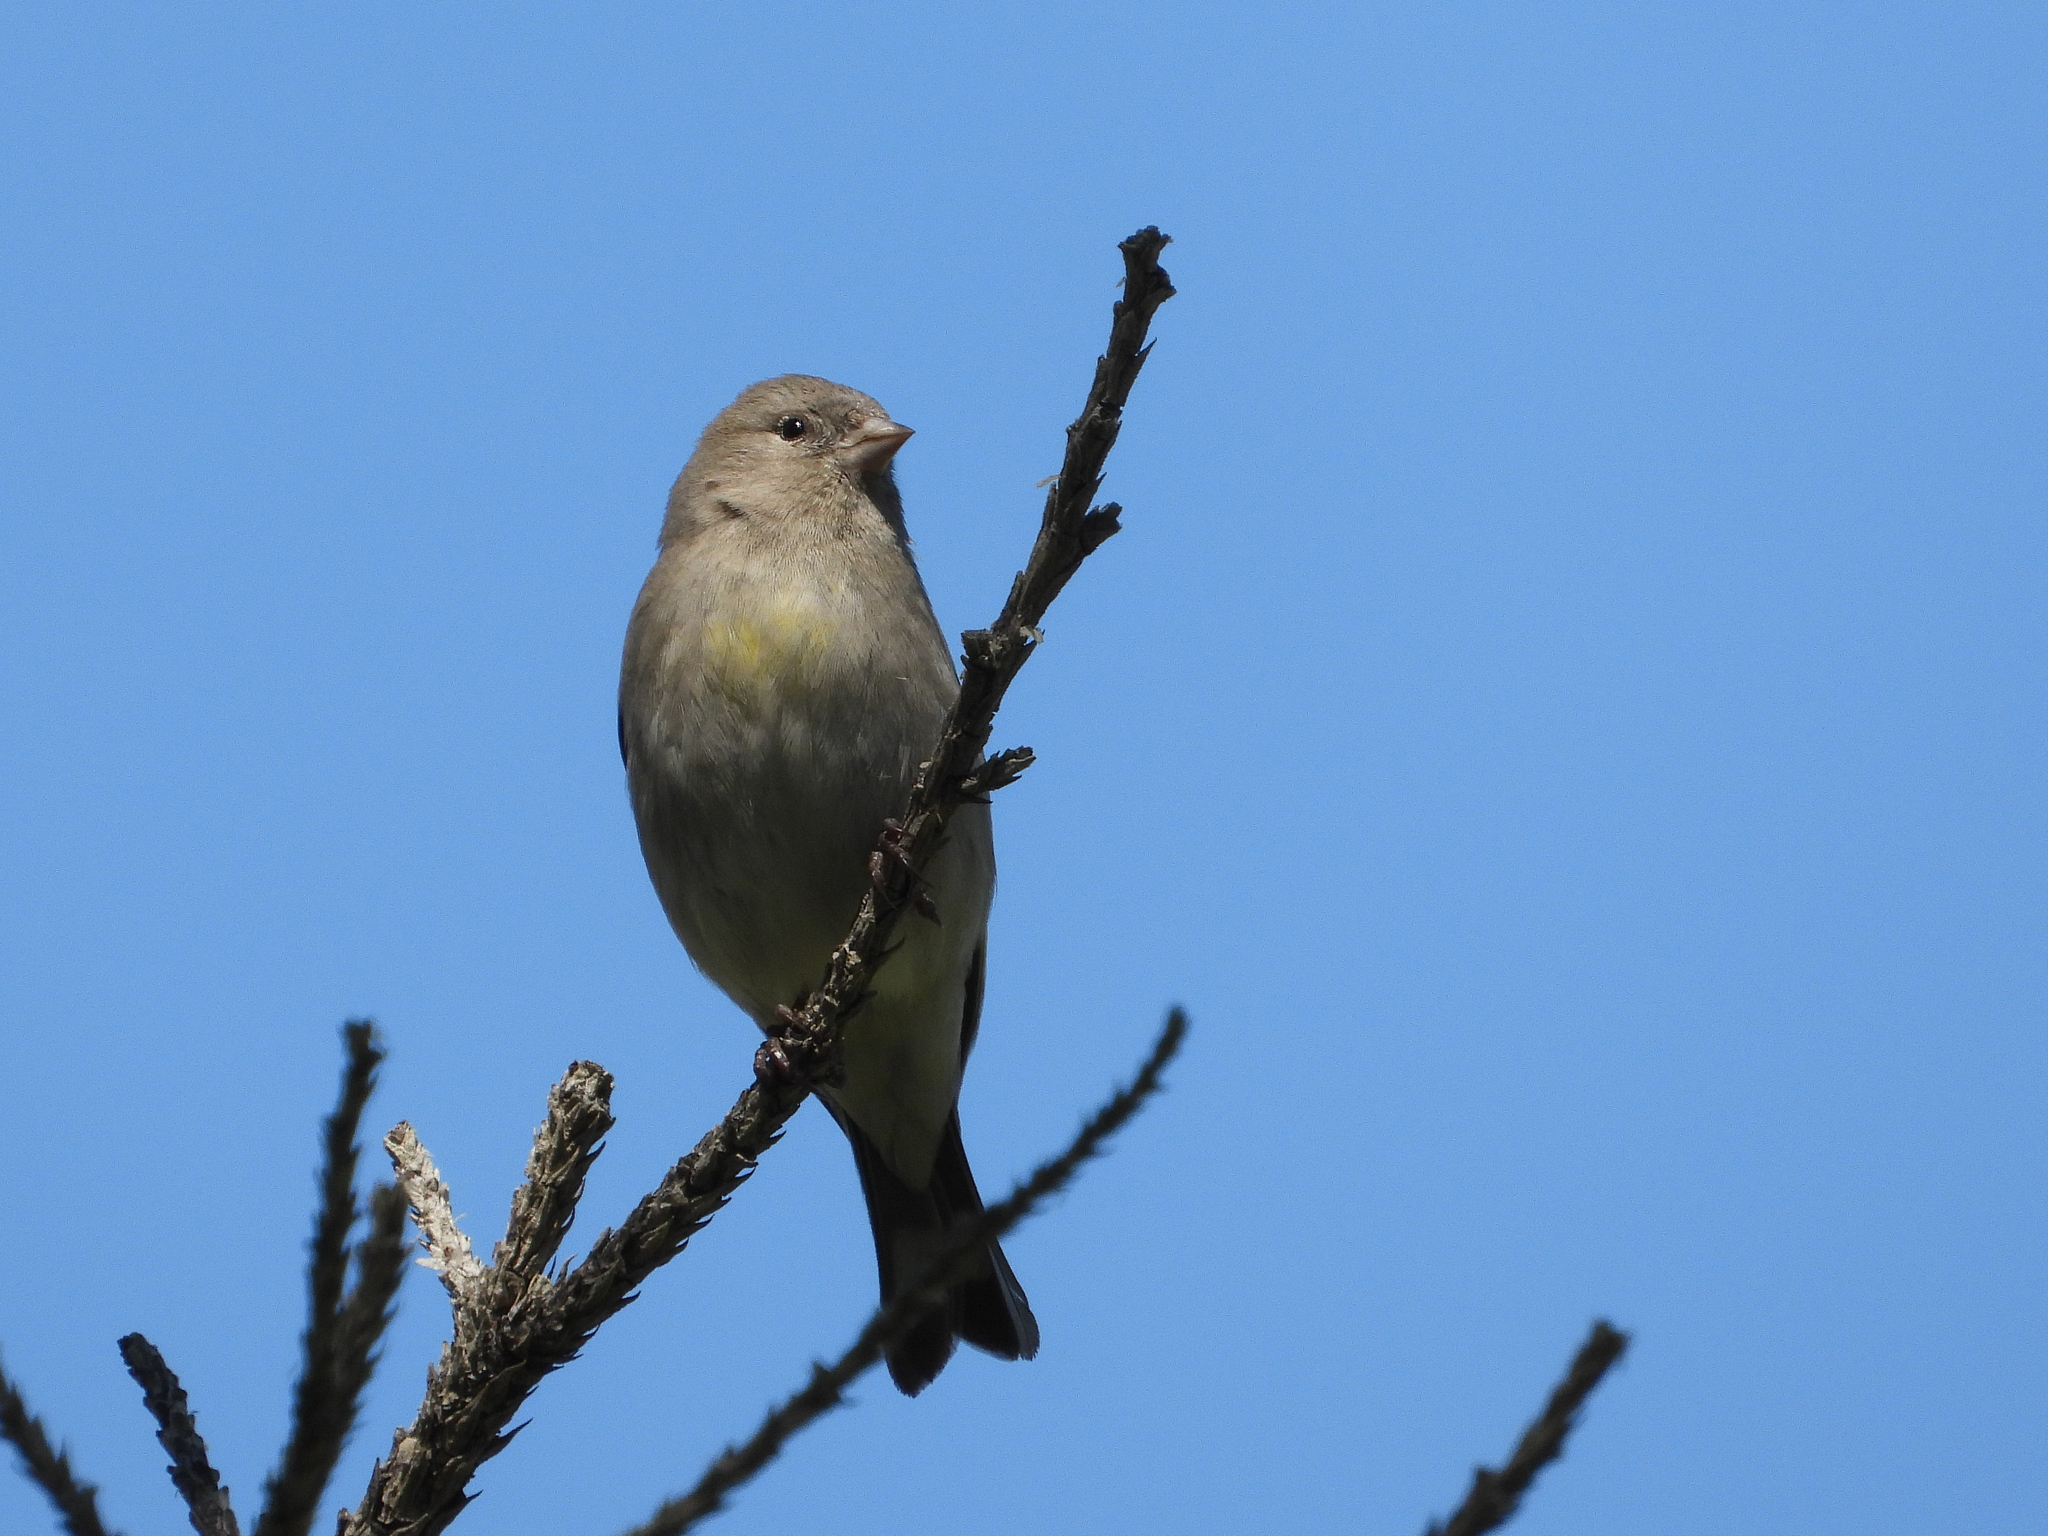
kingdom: Animalia
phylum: Chordata
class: Aves
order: Passeriformes
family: Fringillidae
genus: Spinus
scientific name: Spinus lawrencei
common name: Lawrence's goldfinch
